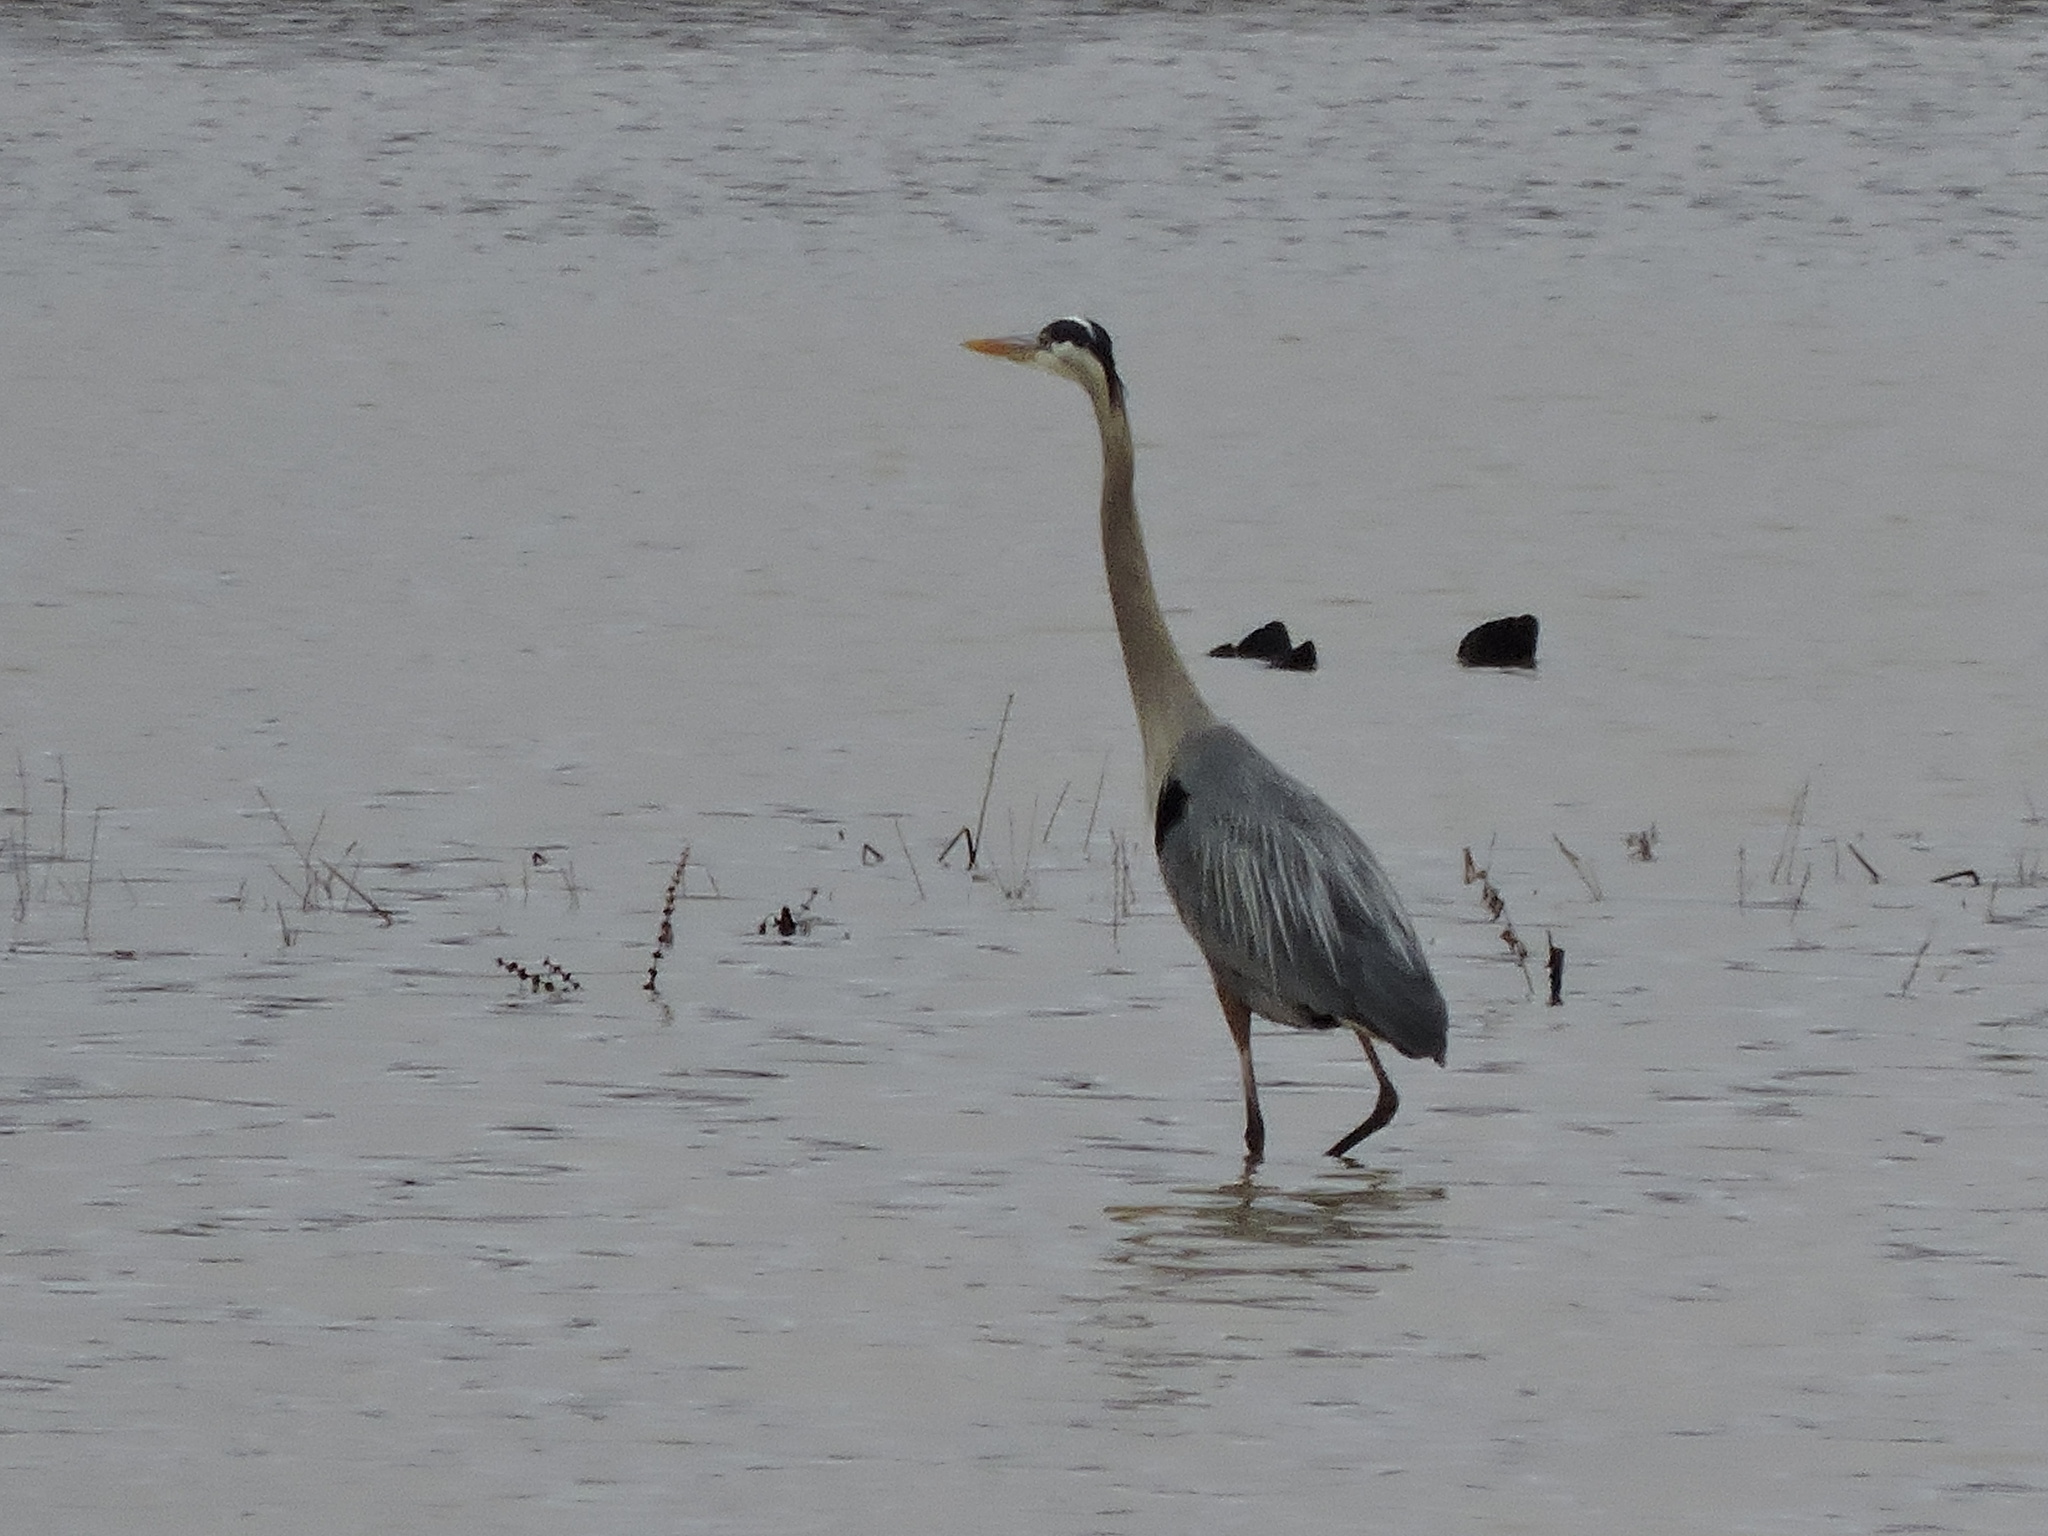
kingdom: Animalia
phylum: Chordata
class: Aves
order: Pelecaniformes
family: Ardeidae
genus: Ardea
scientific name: Ardea herodias
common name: Great blue heron
